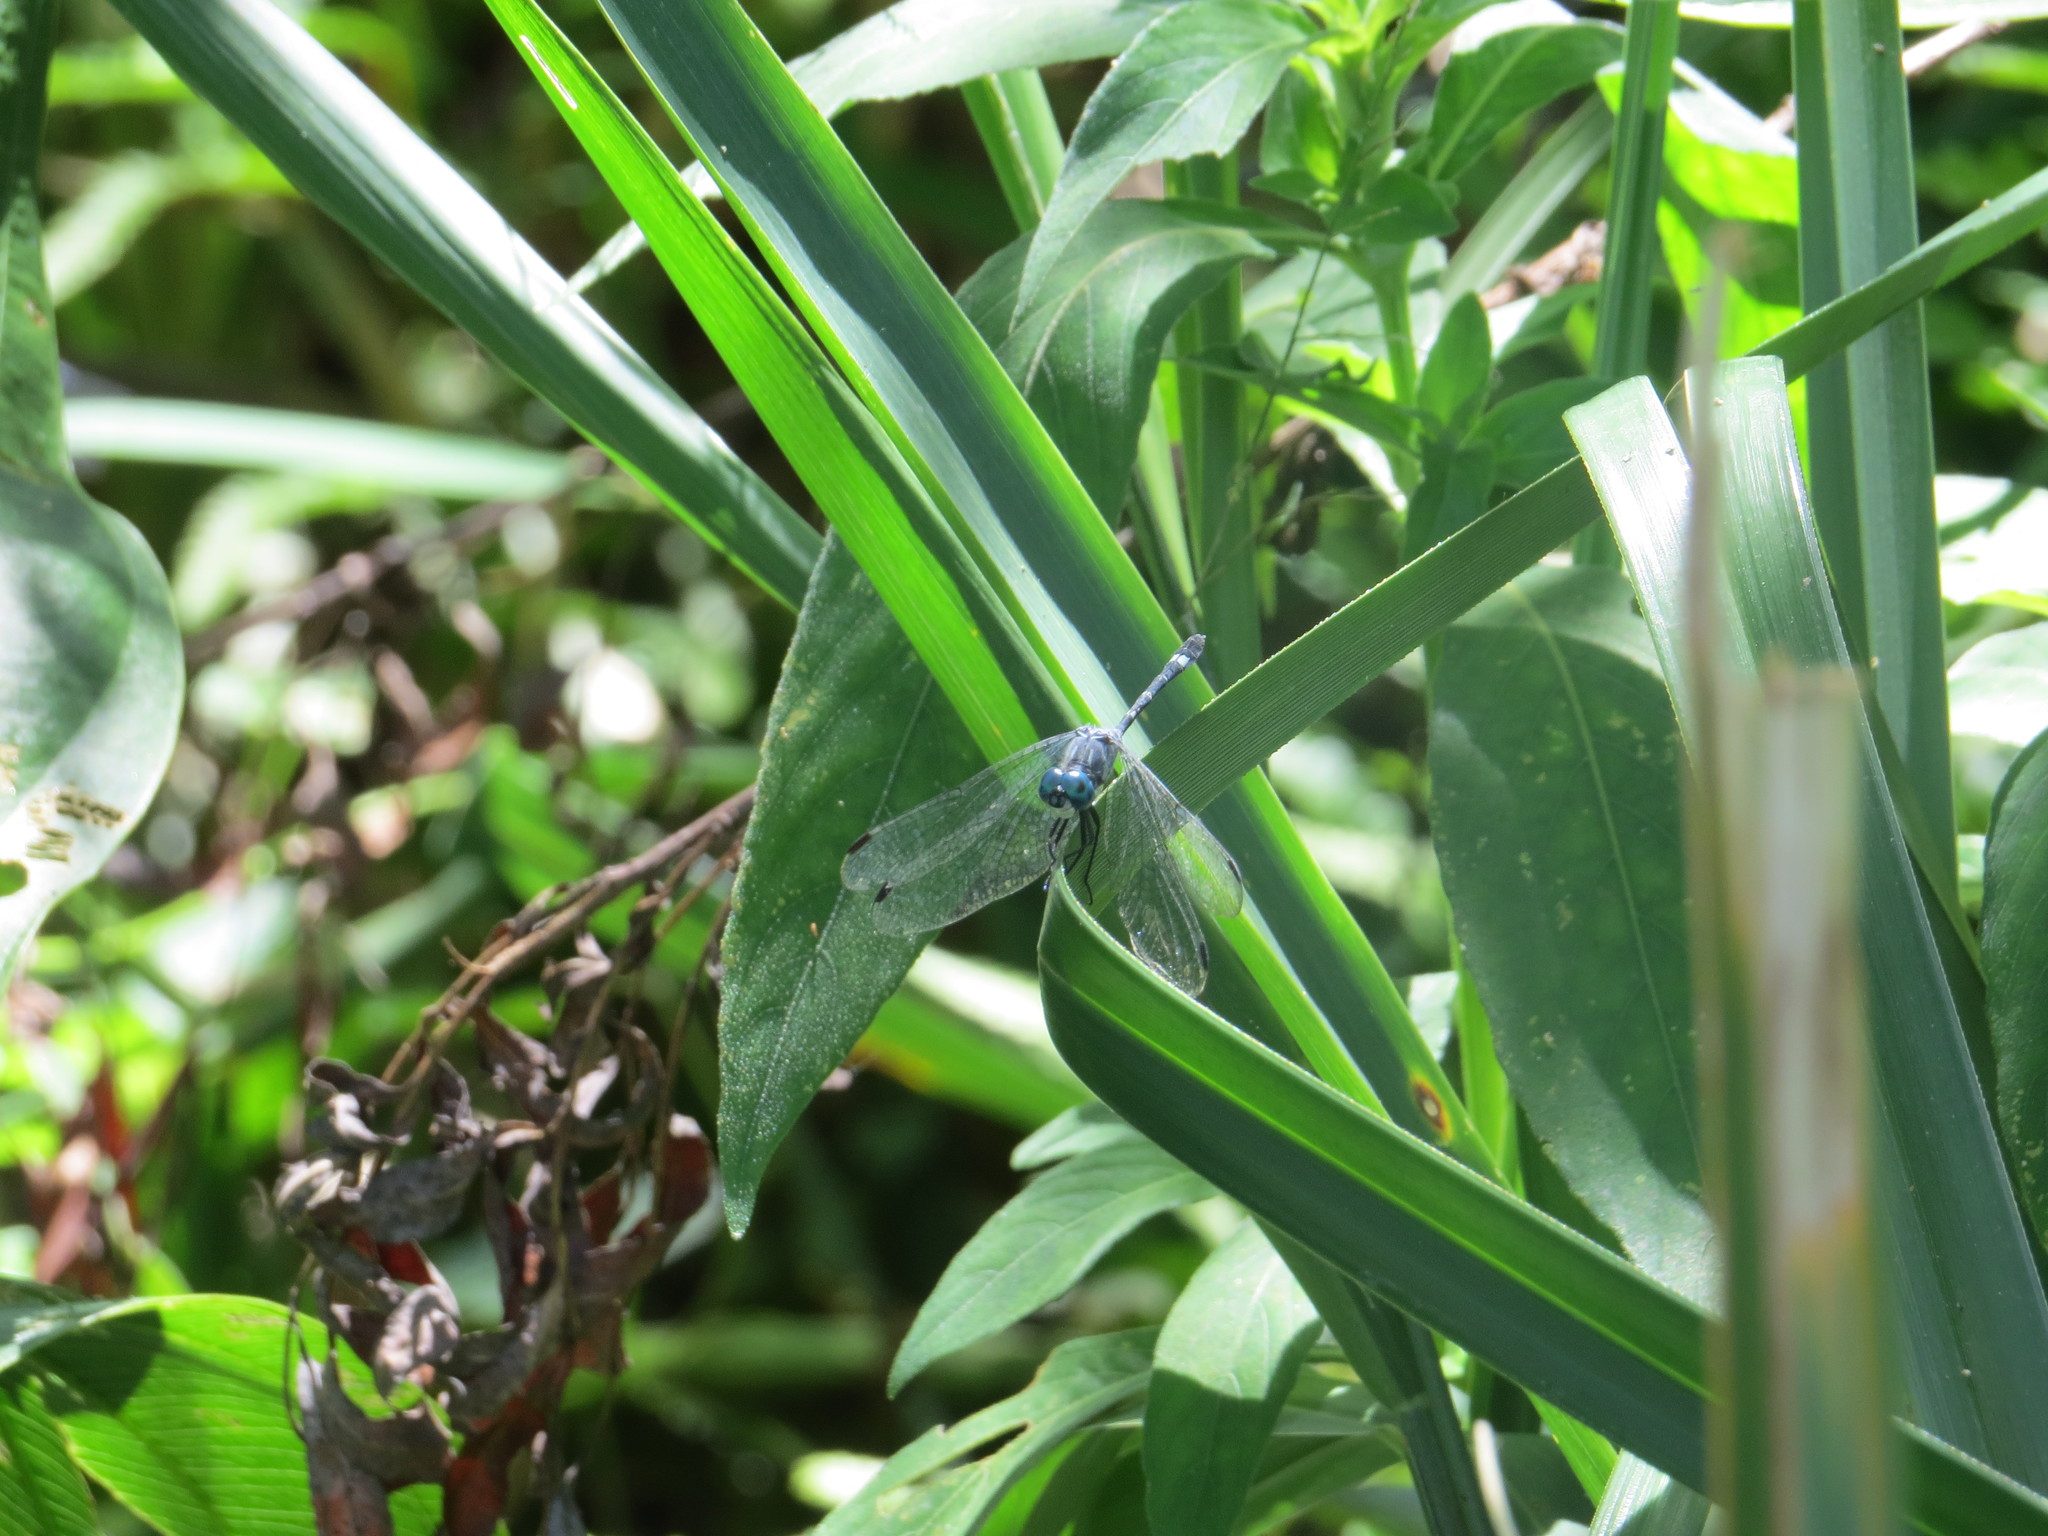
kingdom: Animalia
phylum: Arthropoda
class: Insecta
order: Odonata
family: Libellulidae
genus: Micrathyria
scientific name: Micrathyria hypodidyma
